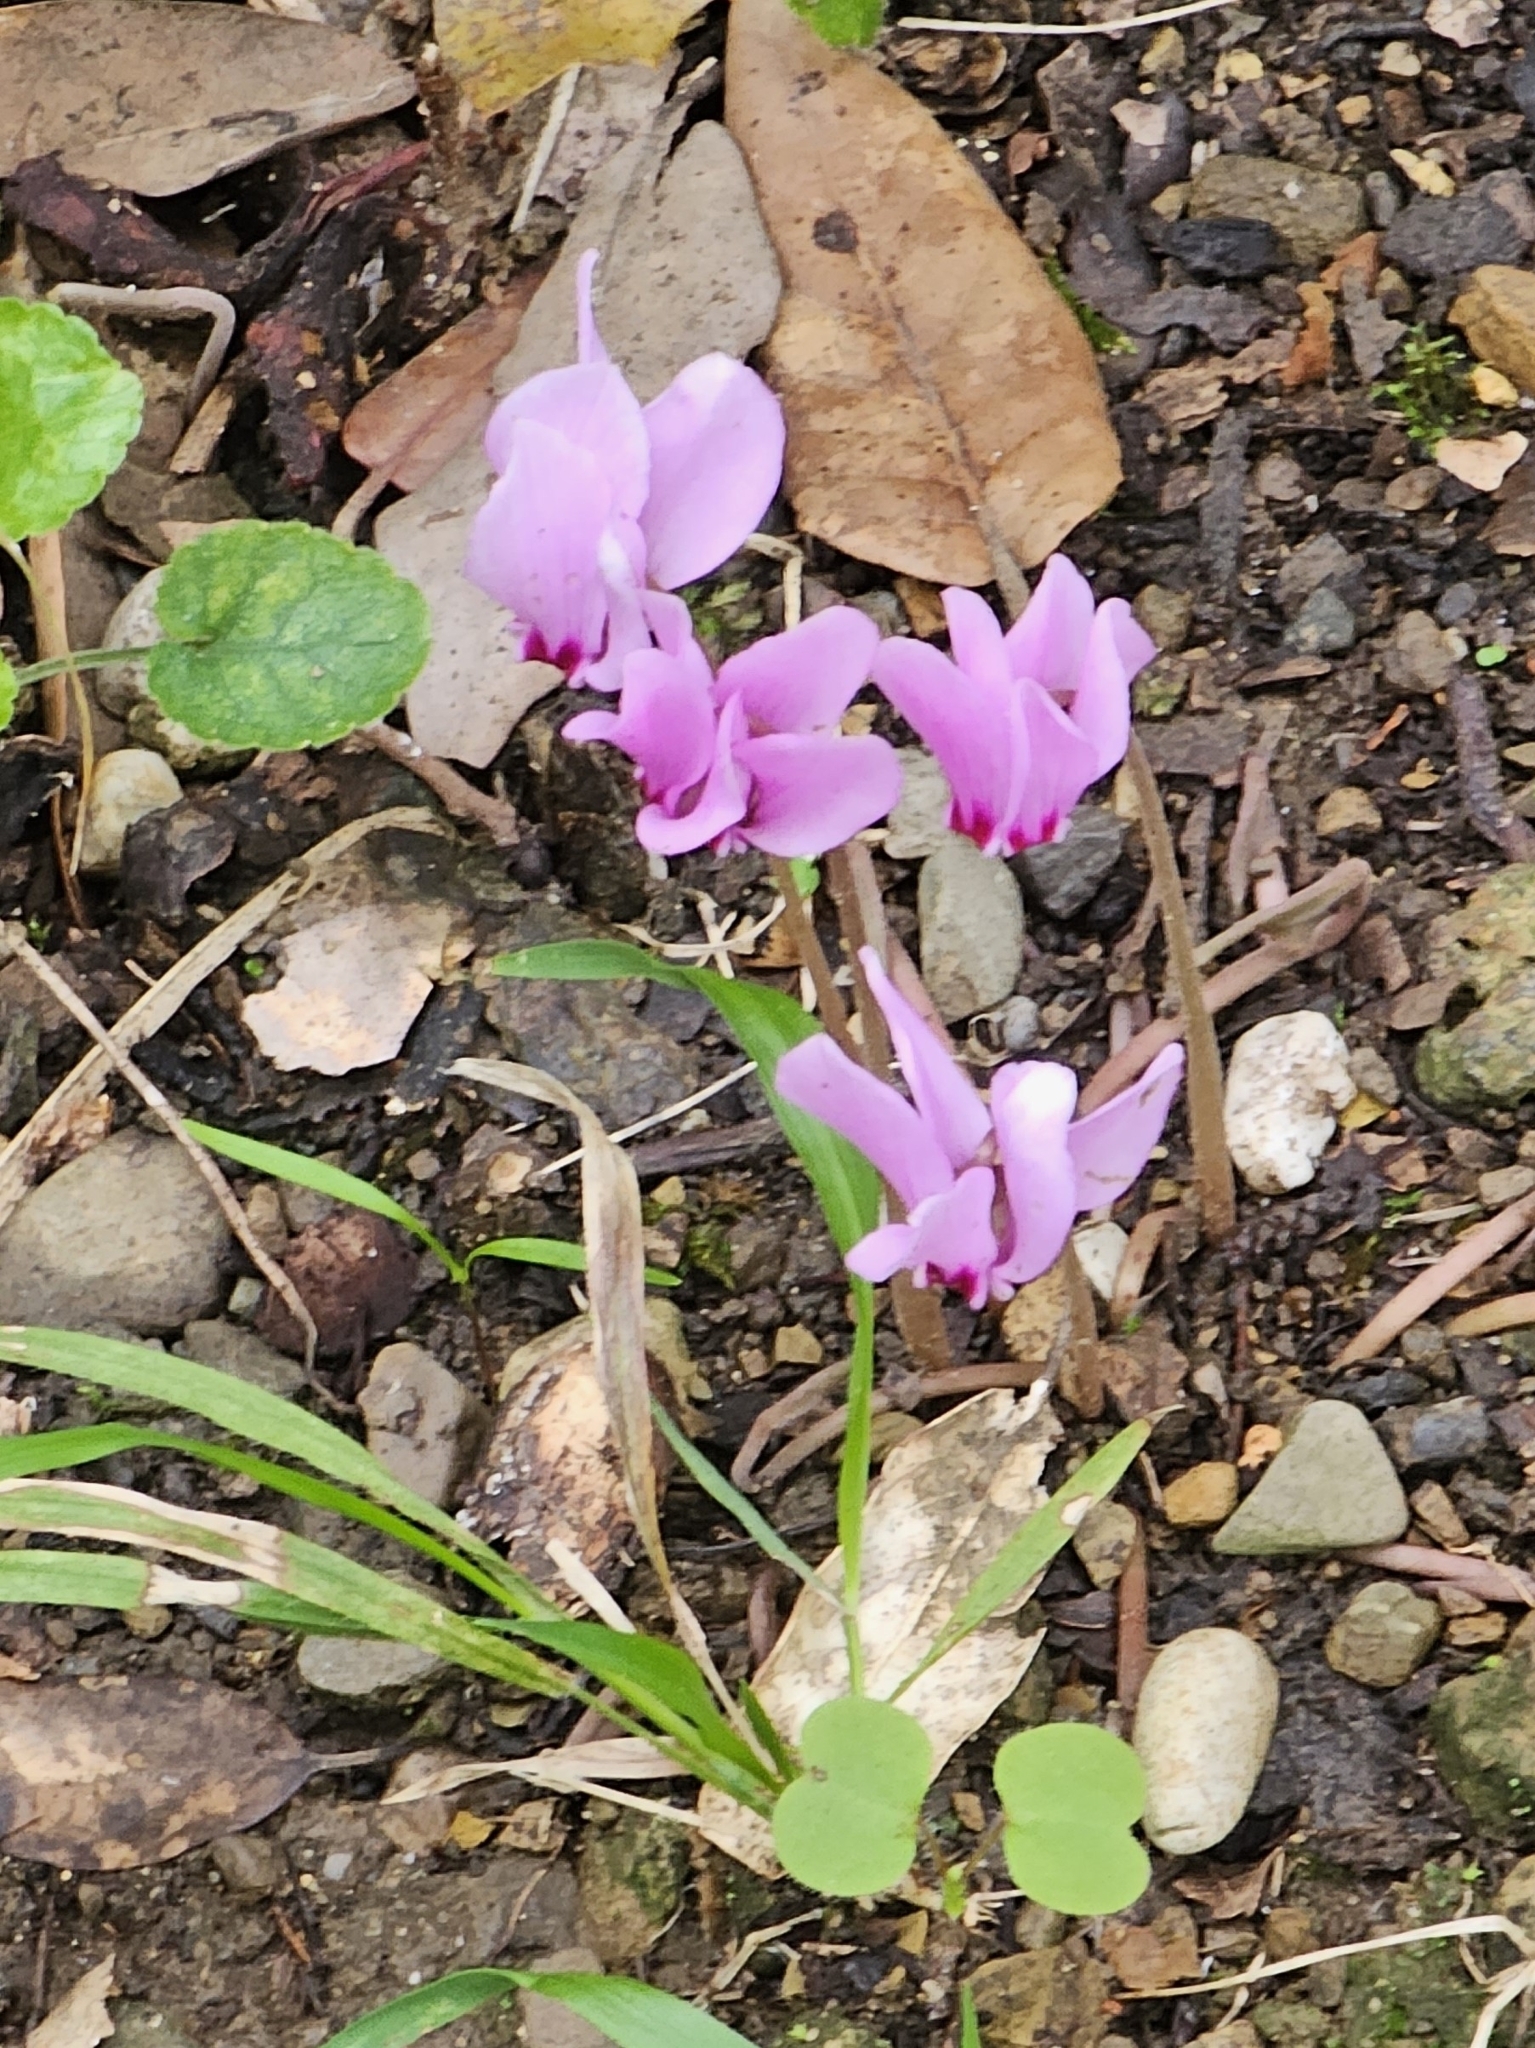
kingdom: Plantae
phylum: Tracheophyta
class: Magnoliopsida
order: Ericales
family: Primulaceae
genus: Cyclamen
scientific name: Cyclamen hederifolium
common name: Sowbread
